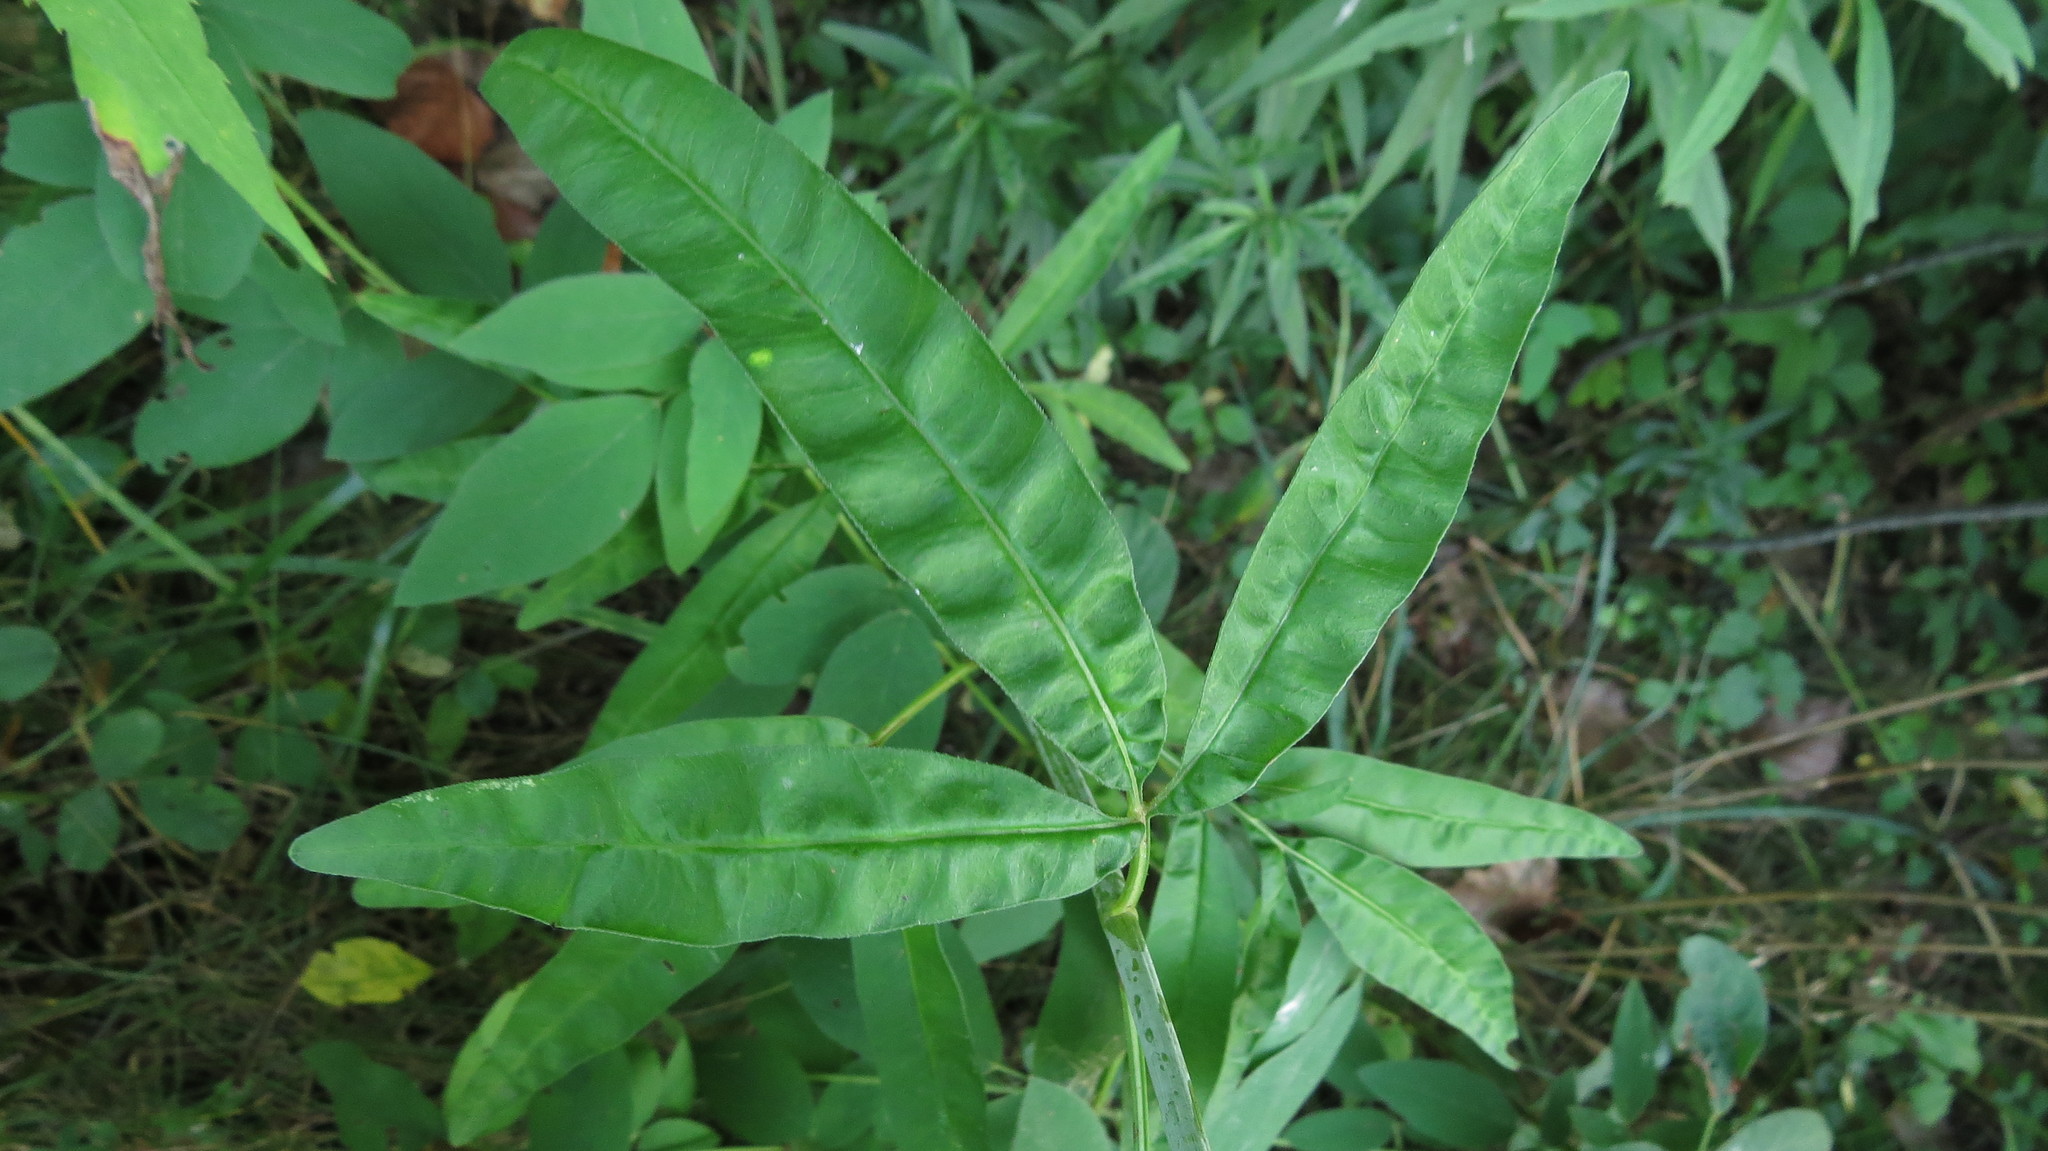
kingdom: Plantae
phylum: Tracheophyta
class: Magnoliopsida
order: Asterales
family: Asteraceae
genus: Coreopsis
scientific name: Coreopsis tripteris
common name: Tall coreopsis
